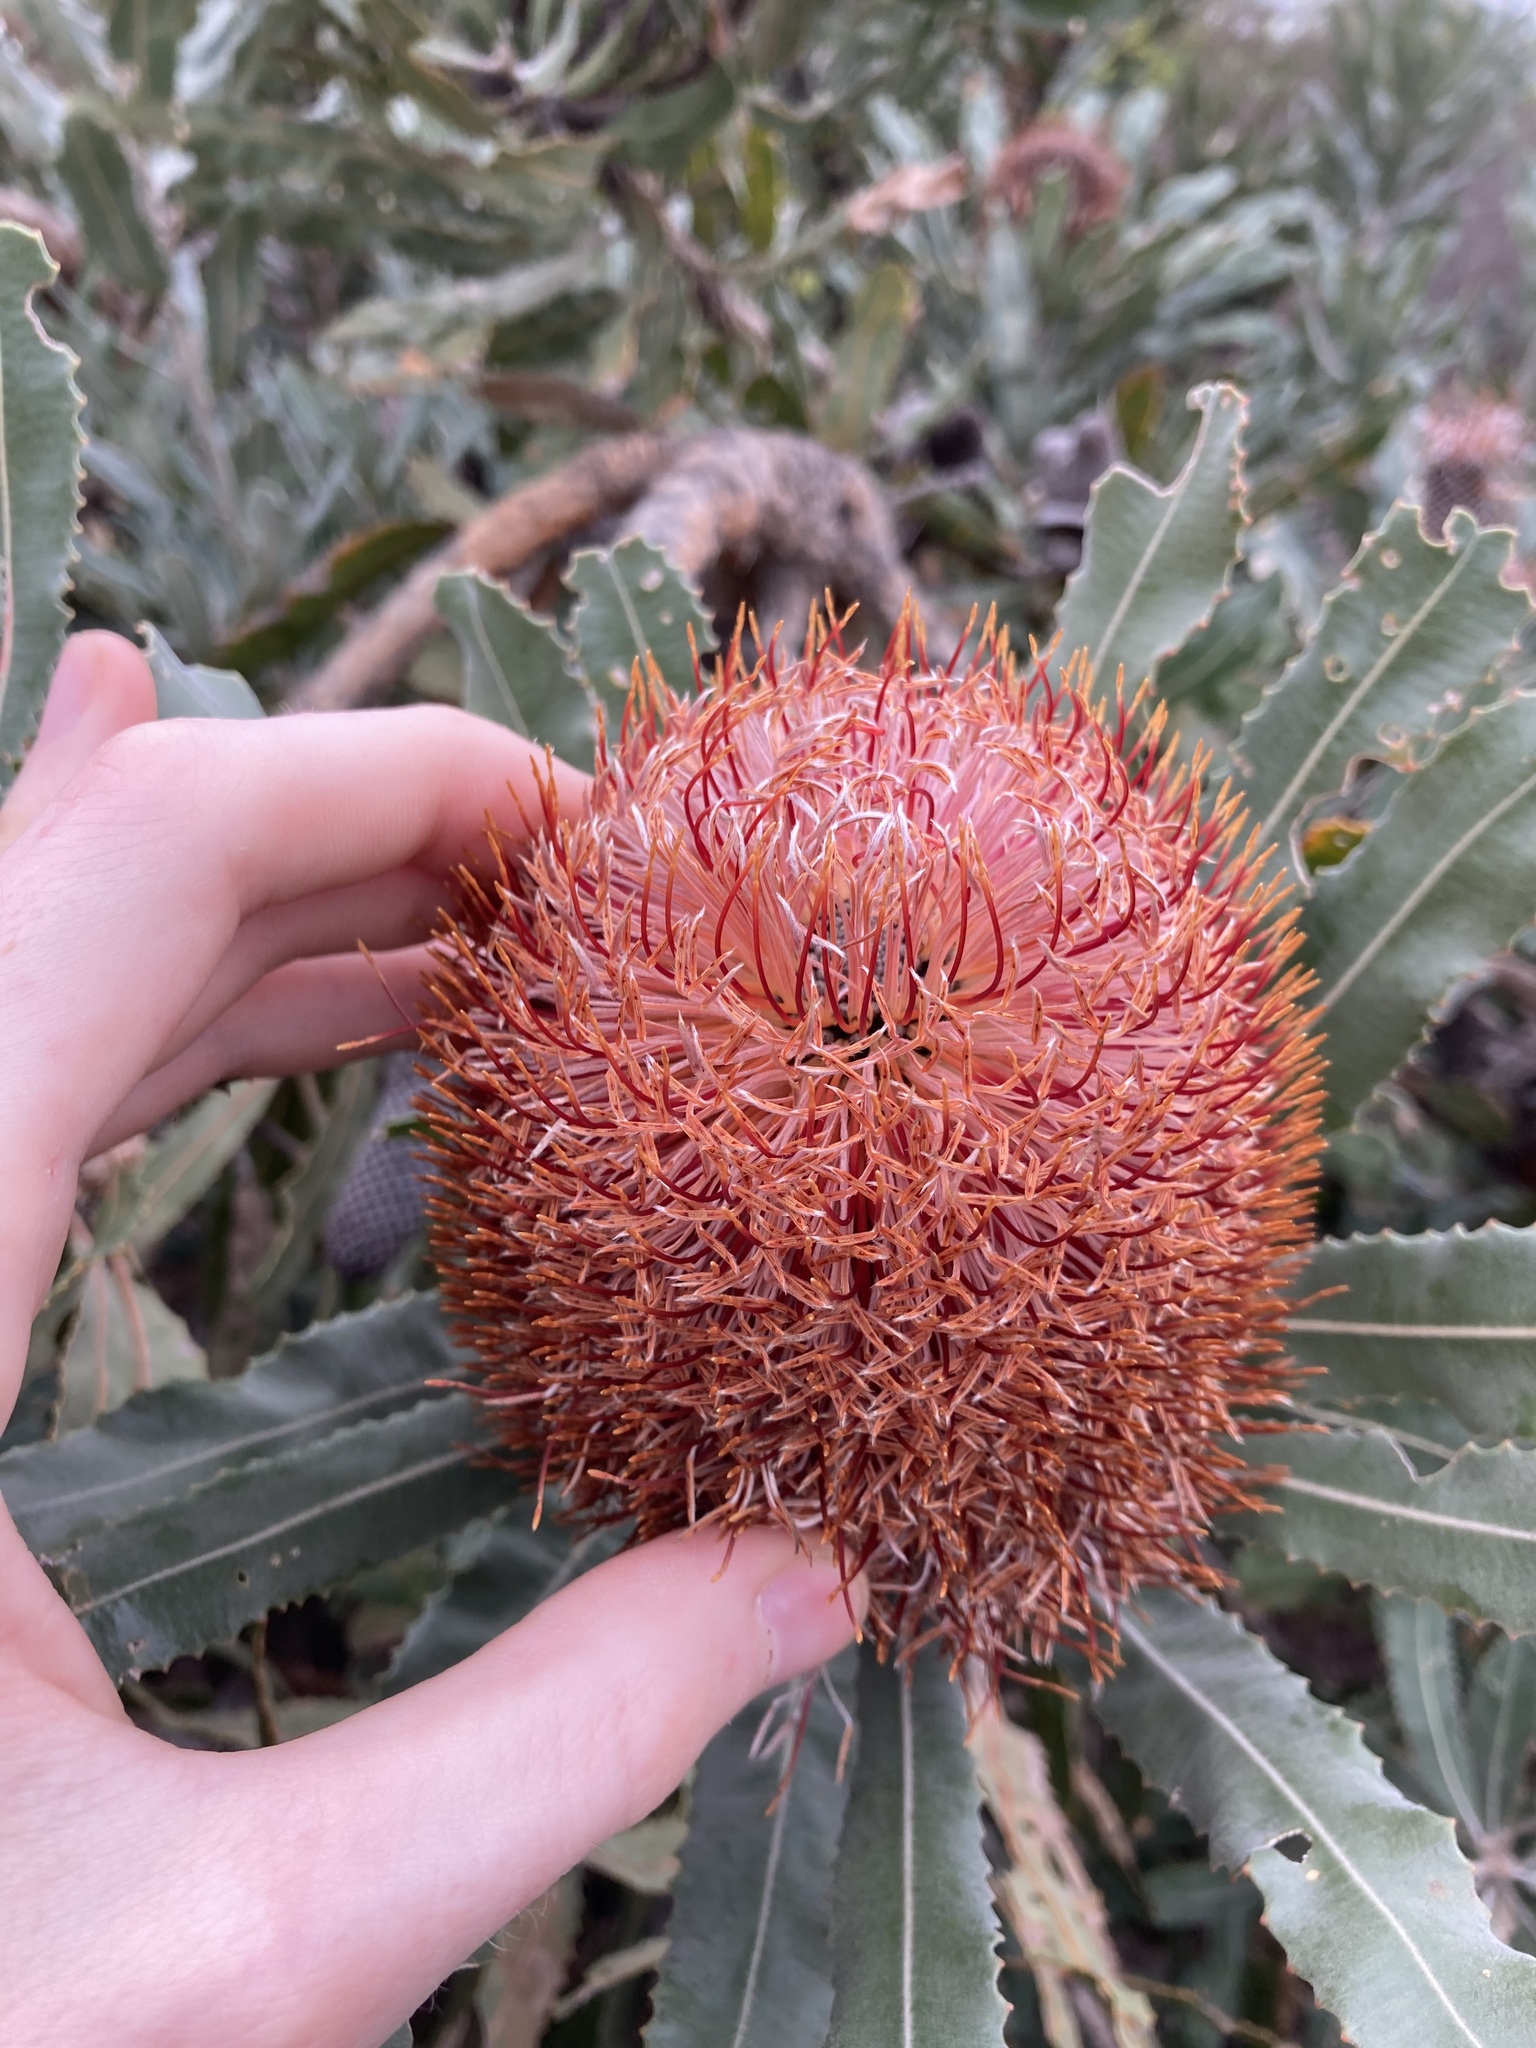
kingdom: Plantae
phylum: Tracheophyta
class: Magnoliopsida
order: Proteales
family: Proteaceae
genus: Banksia
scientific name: Banksia menziesii
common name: Menzie's banksia
